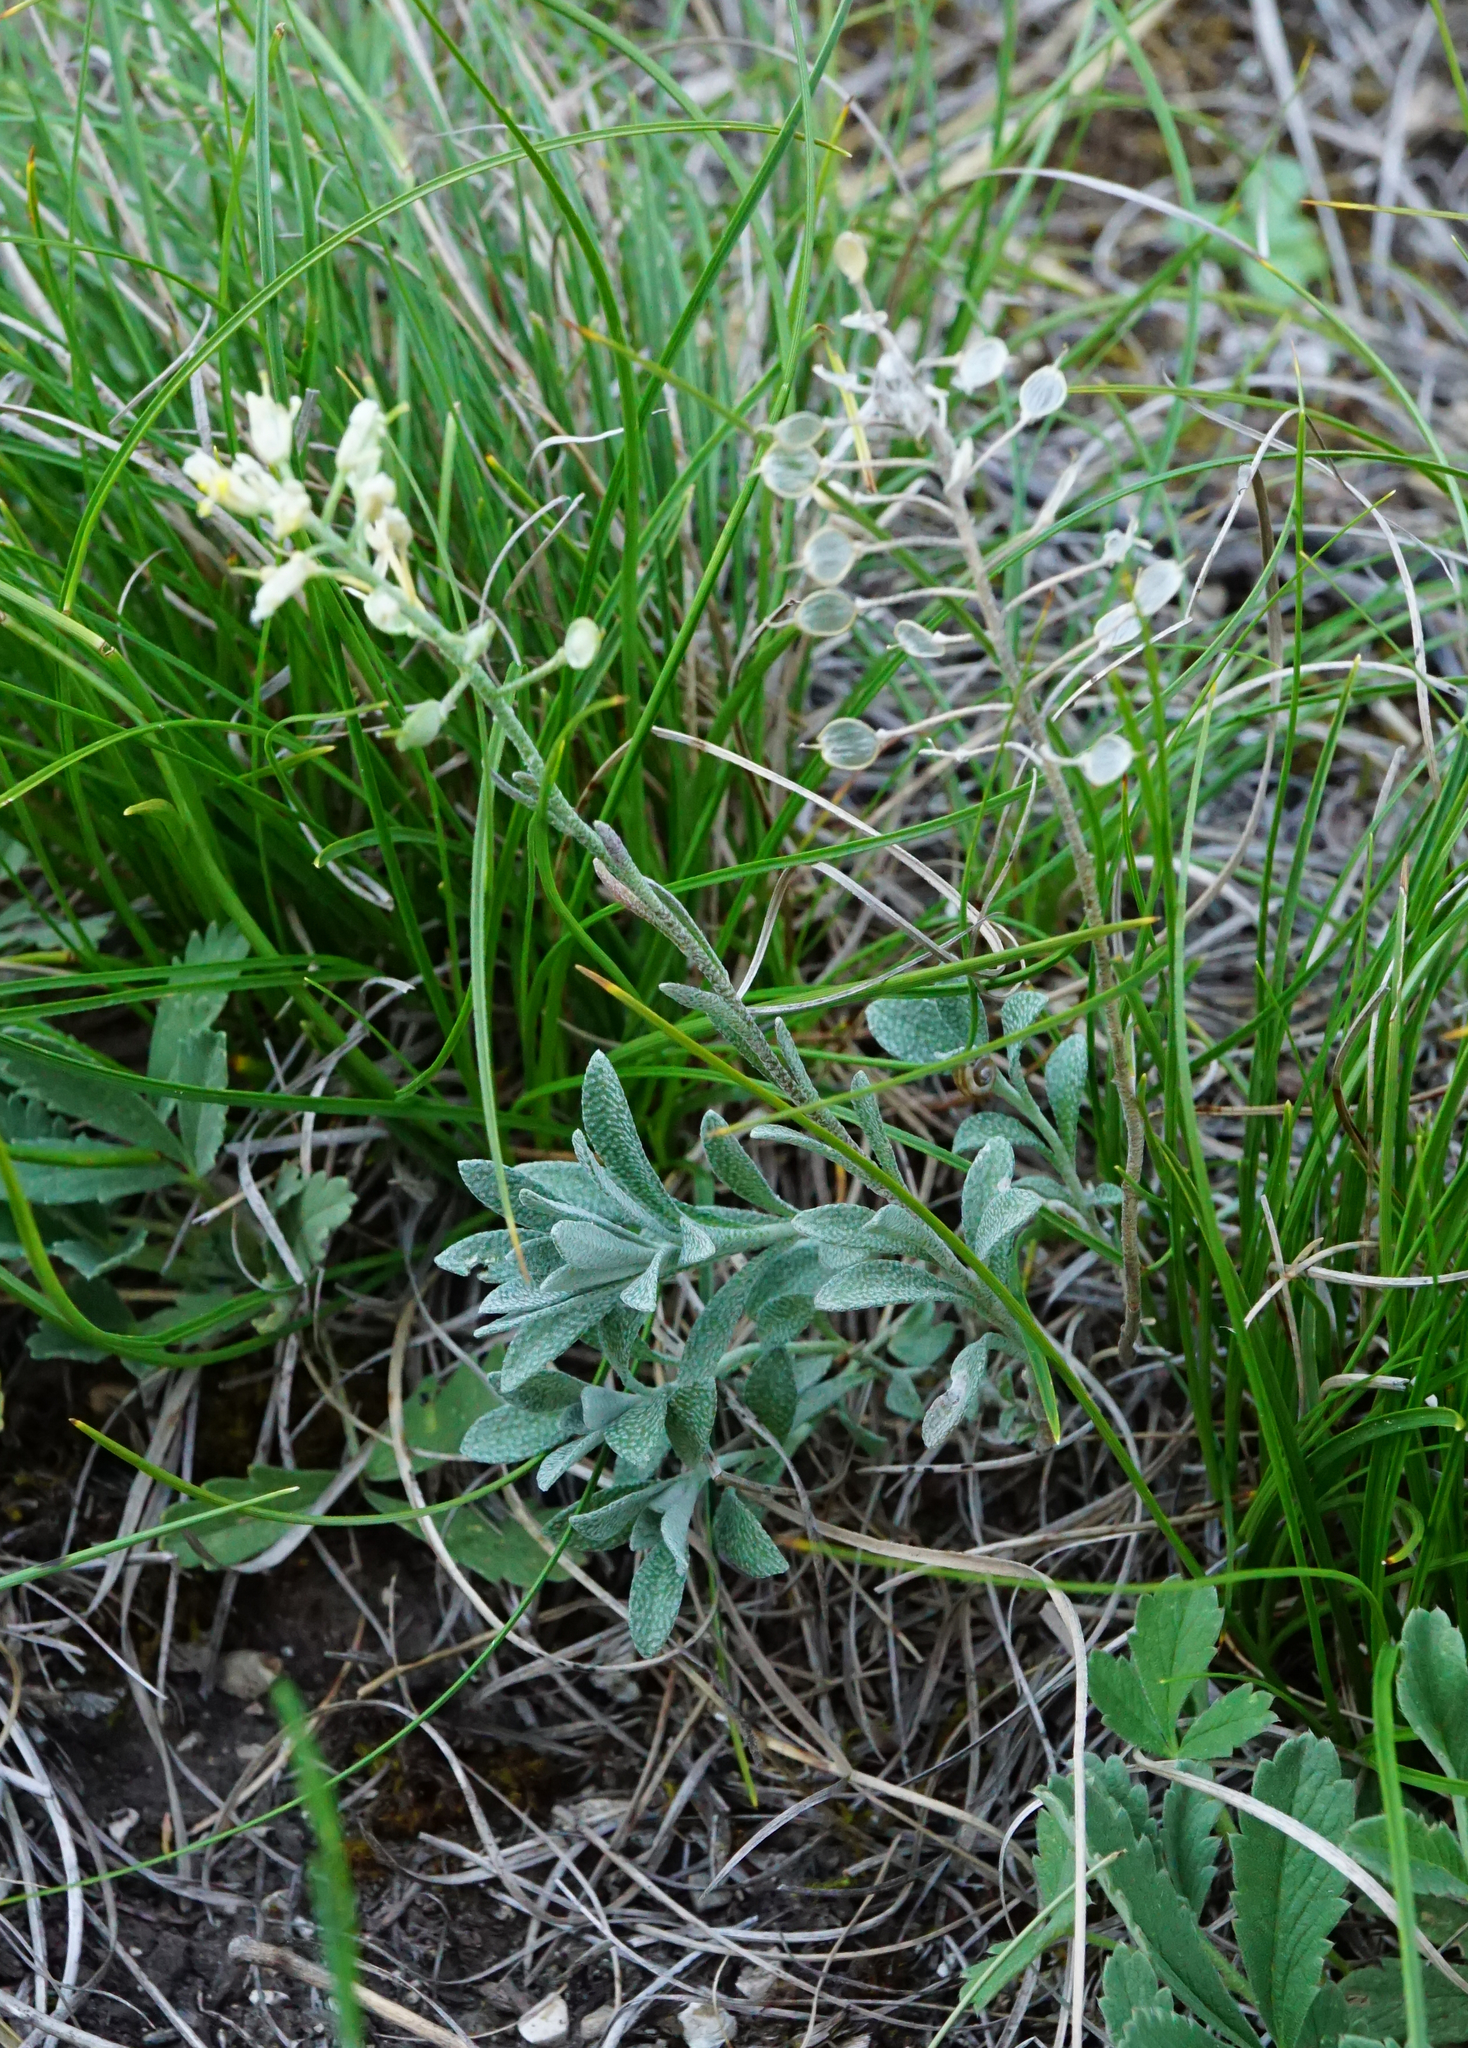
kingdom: Plantae
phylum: Tracheophyta
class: Magnoliopsida
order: Brassicales
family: Brassicaceae
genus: Alyssum
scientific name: Alyssum gmelinii
